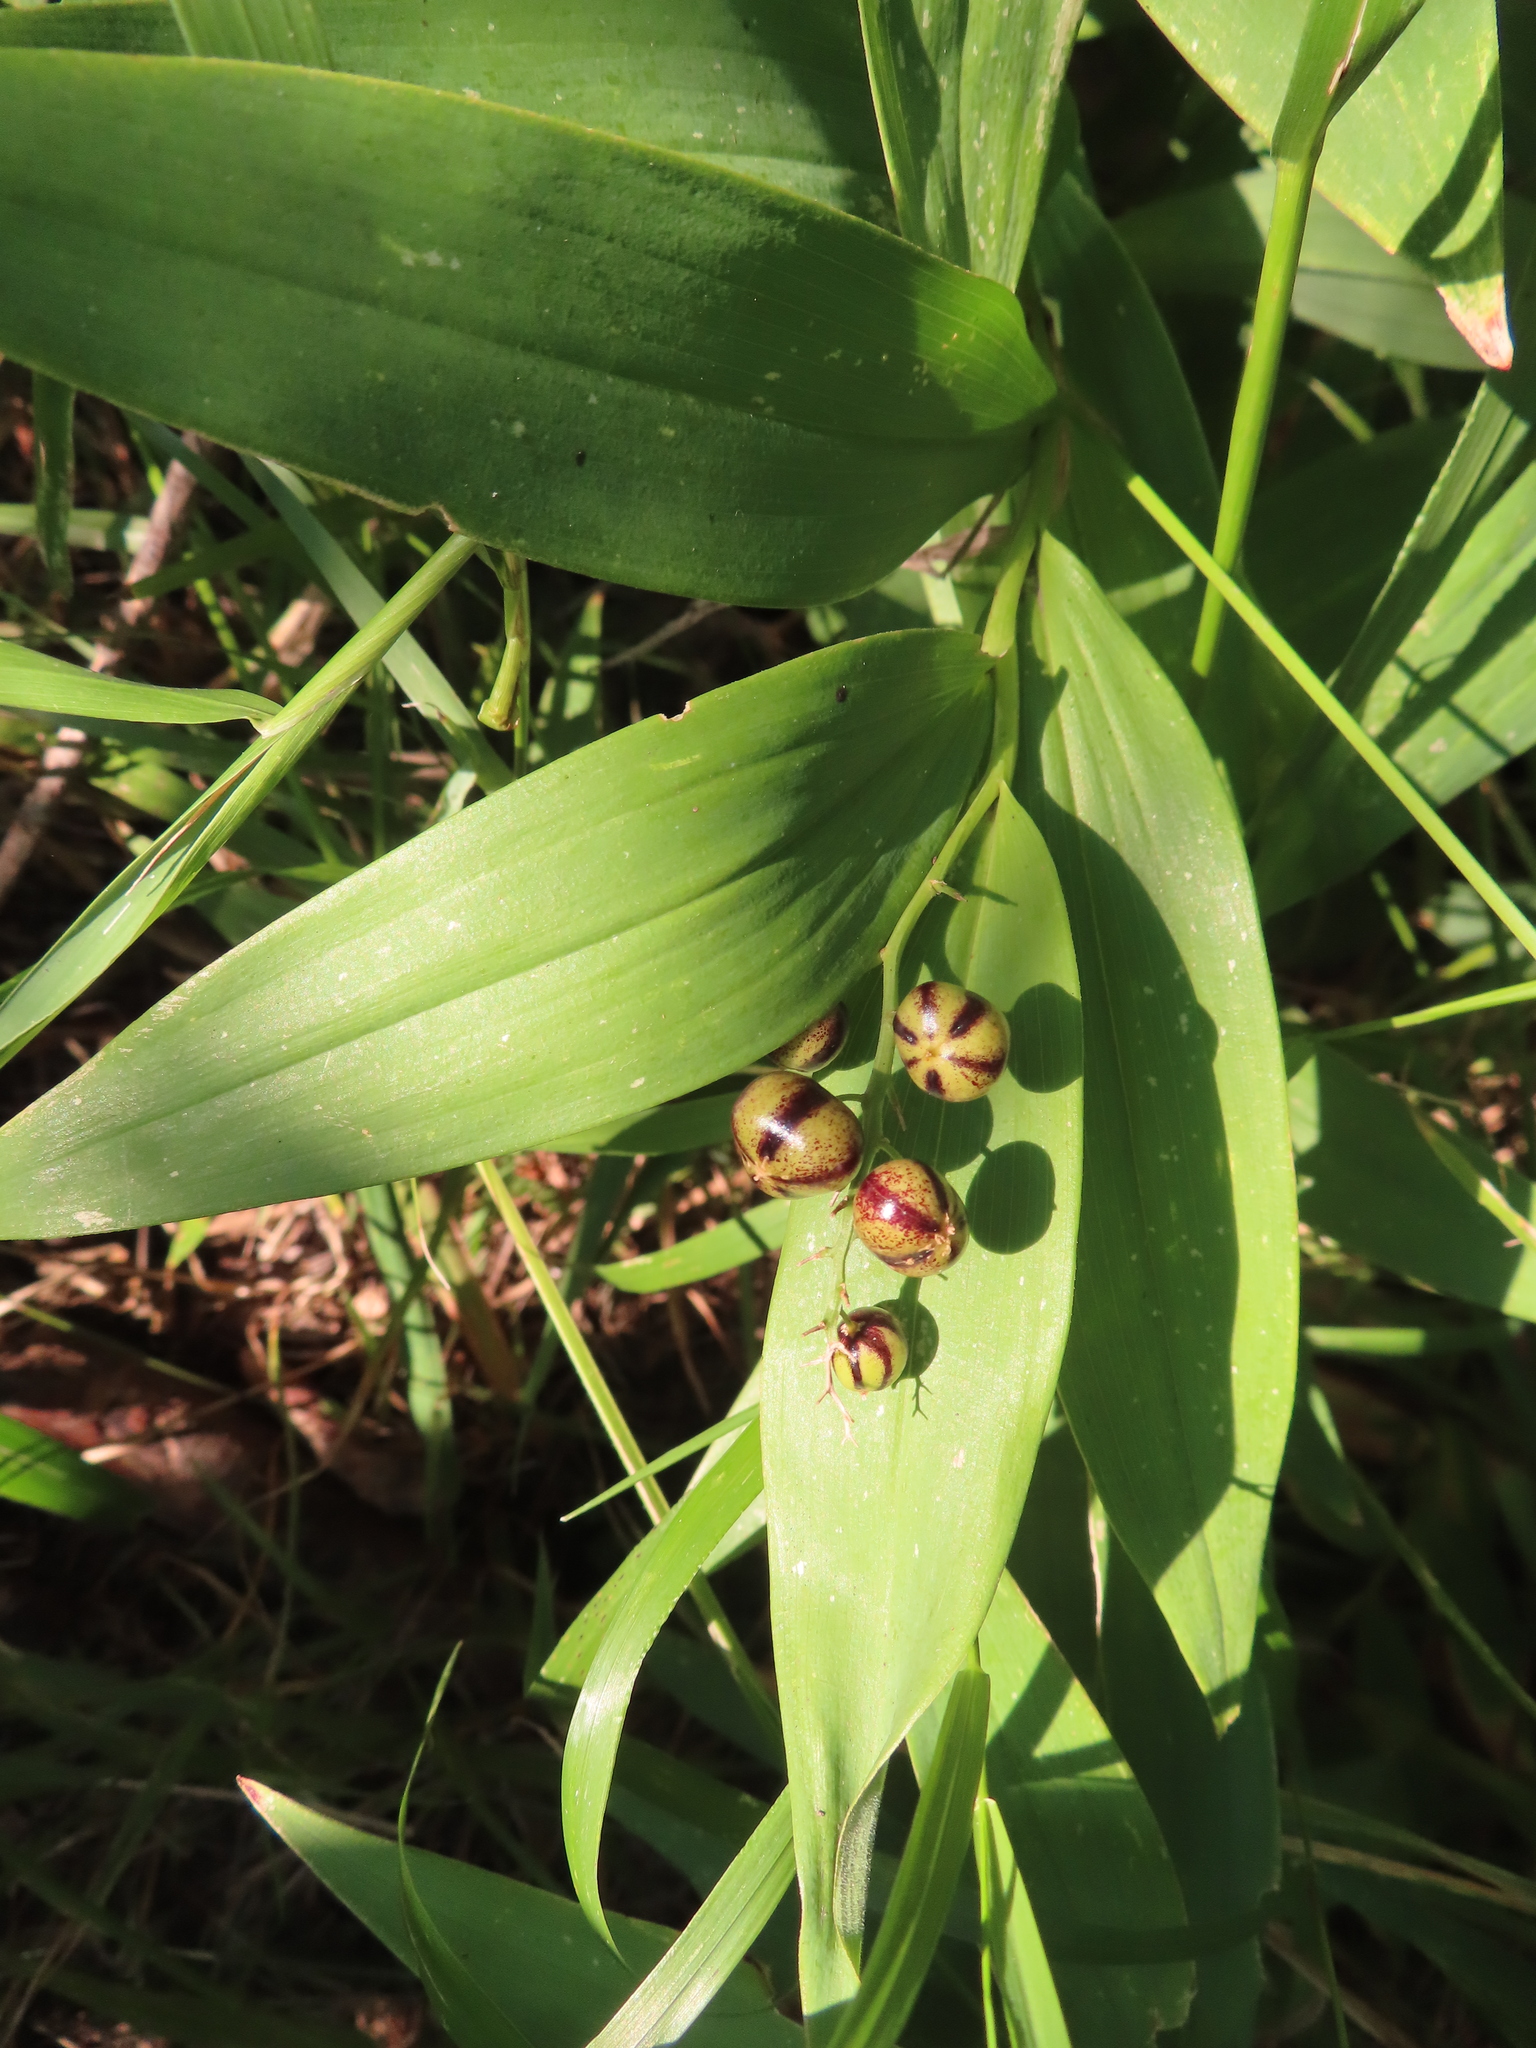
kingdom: Plantae
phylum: Tracheophyta
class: Liliopsida
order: Asparagales
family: Asparagaceae
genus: Maianthemum
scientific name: Maianthemum stellatum
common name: Little false solomon's seal
